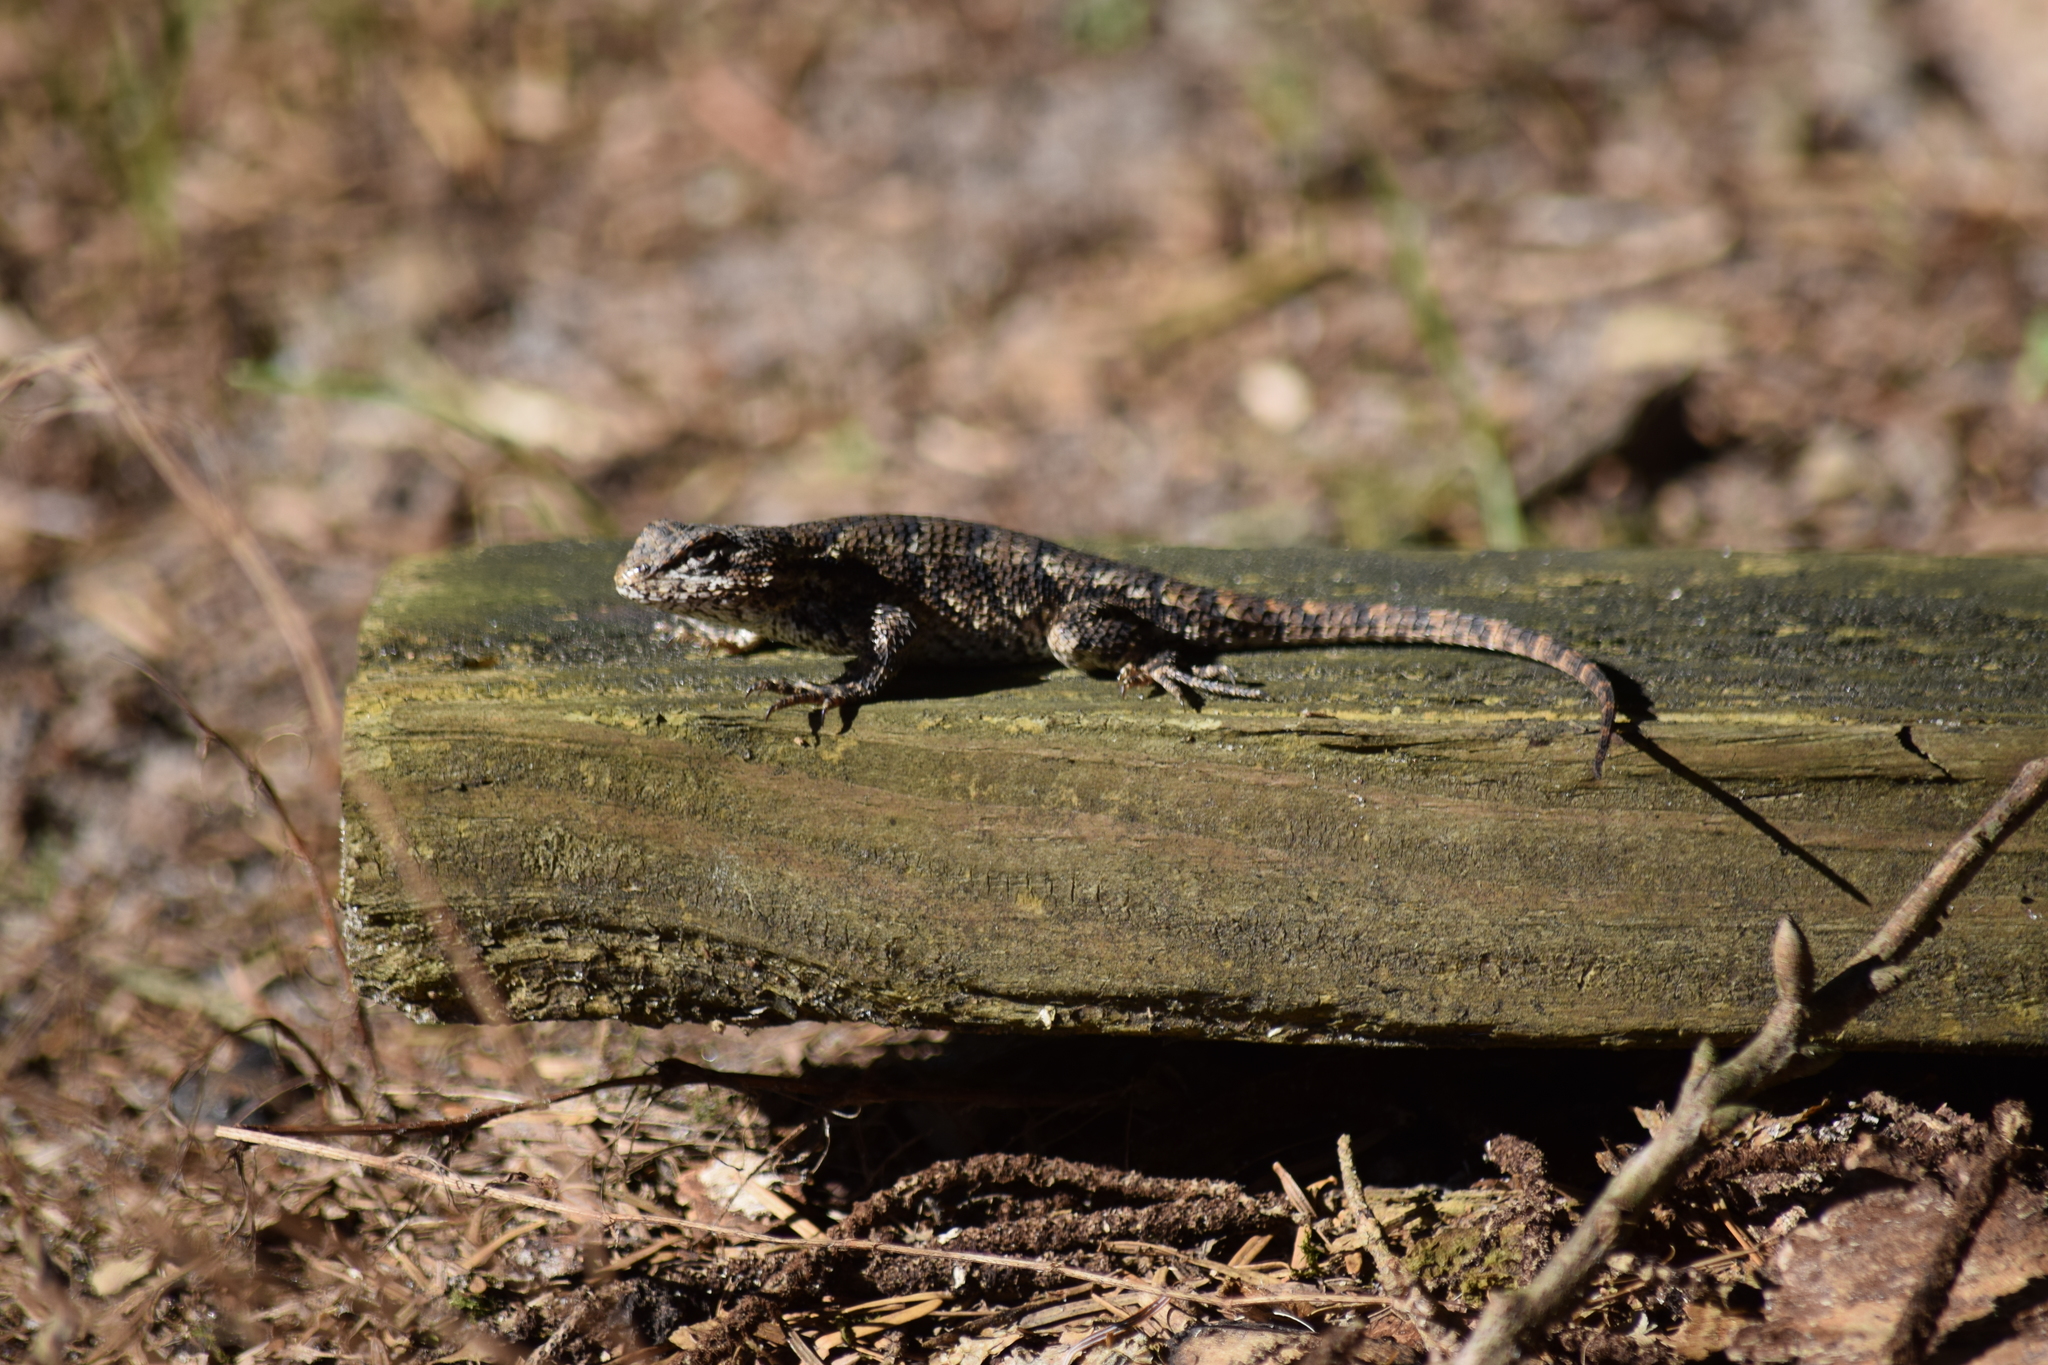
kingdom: Animalia
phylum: Chordata
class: Squamata
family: Phrynosomatidae
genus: Sceloporus
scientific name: Sceloporus undulatus
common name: Eastern fence lizard
